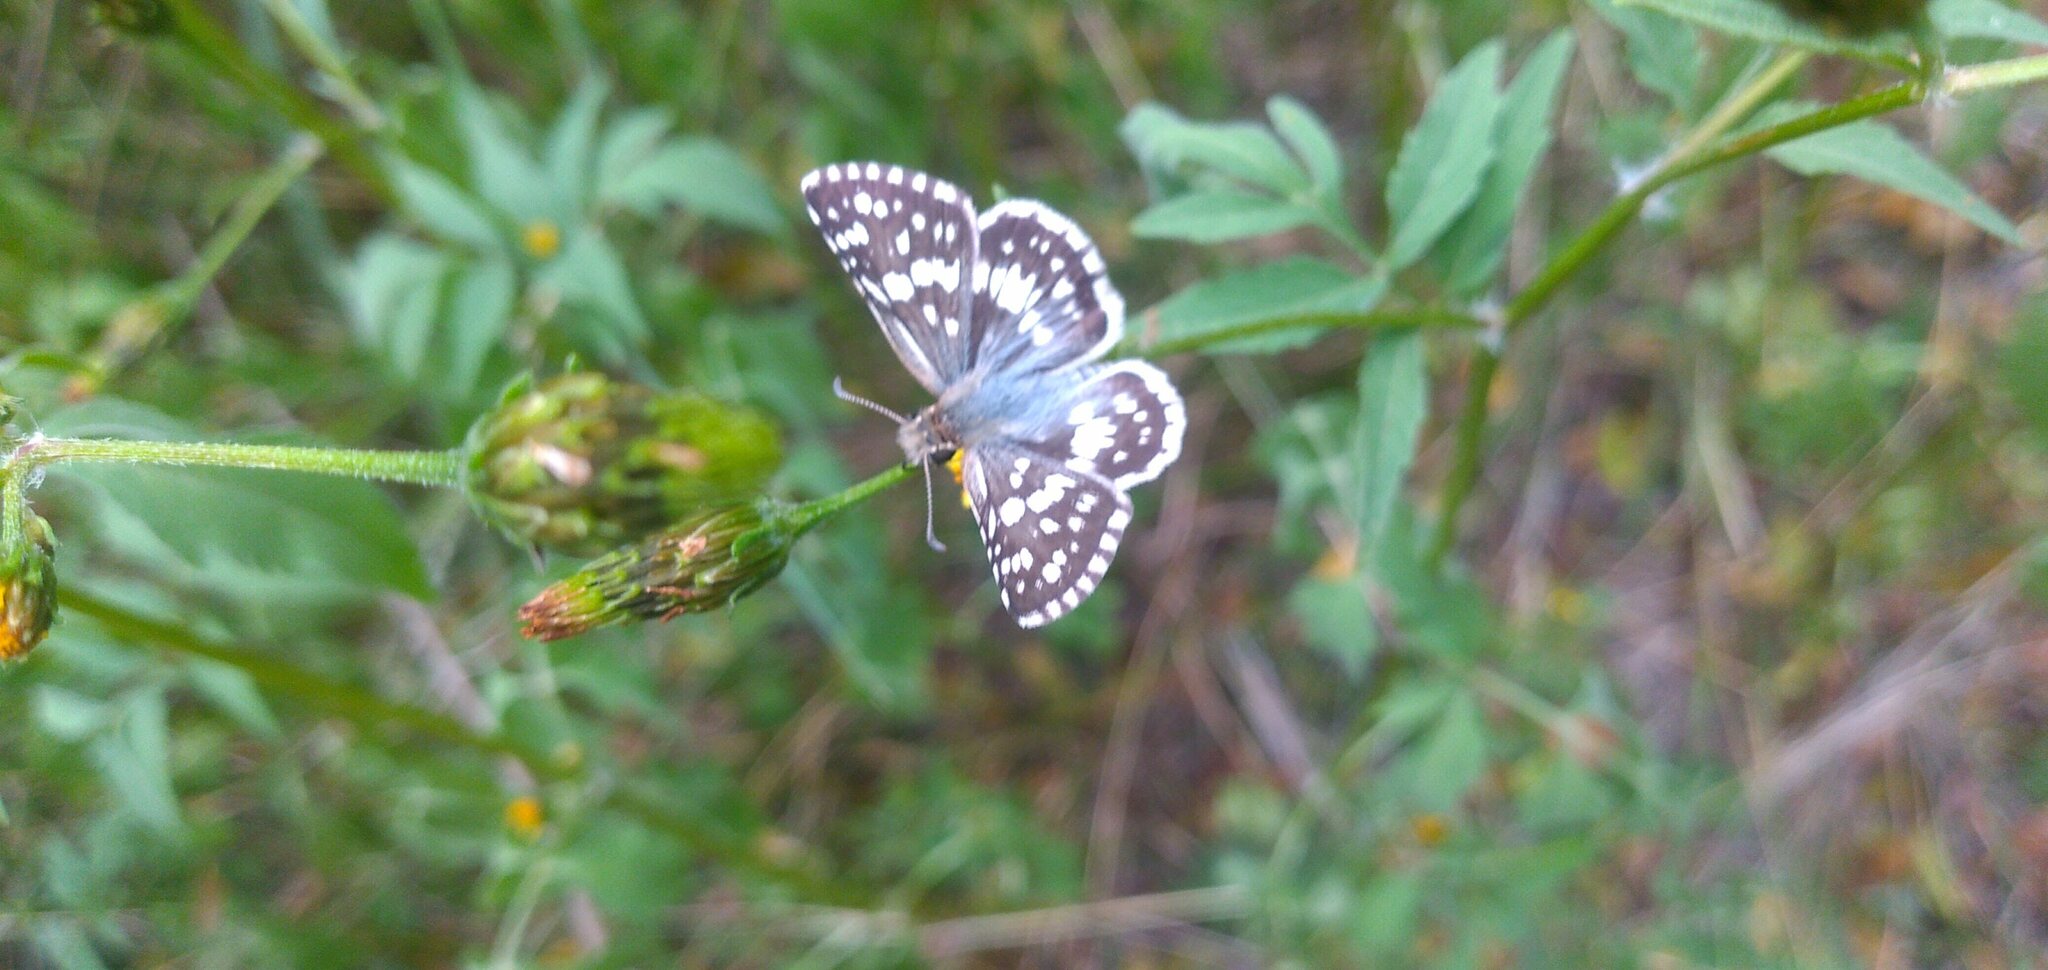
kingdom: Animalia
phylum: Arthropoda
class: Insecta
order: Lepidoptera
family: Hesperiidae
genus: Burnsius
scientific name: Burnsius orcynoides
